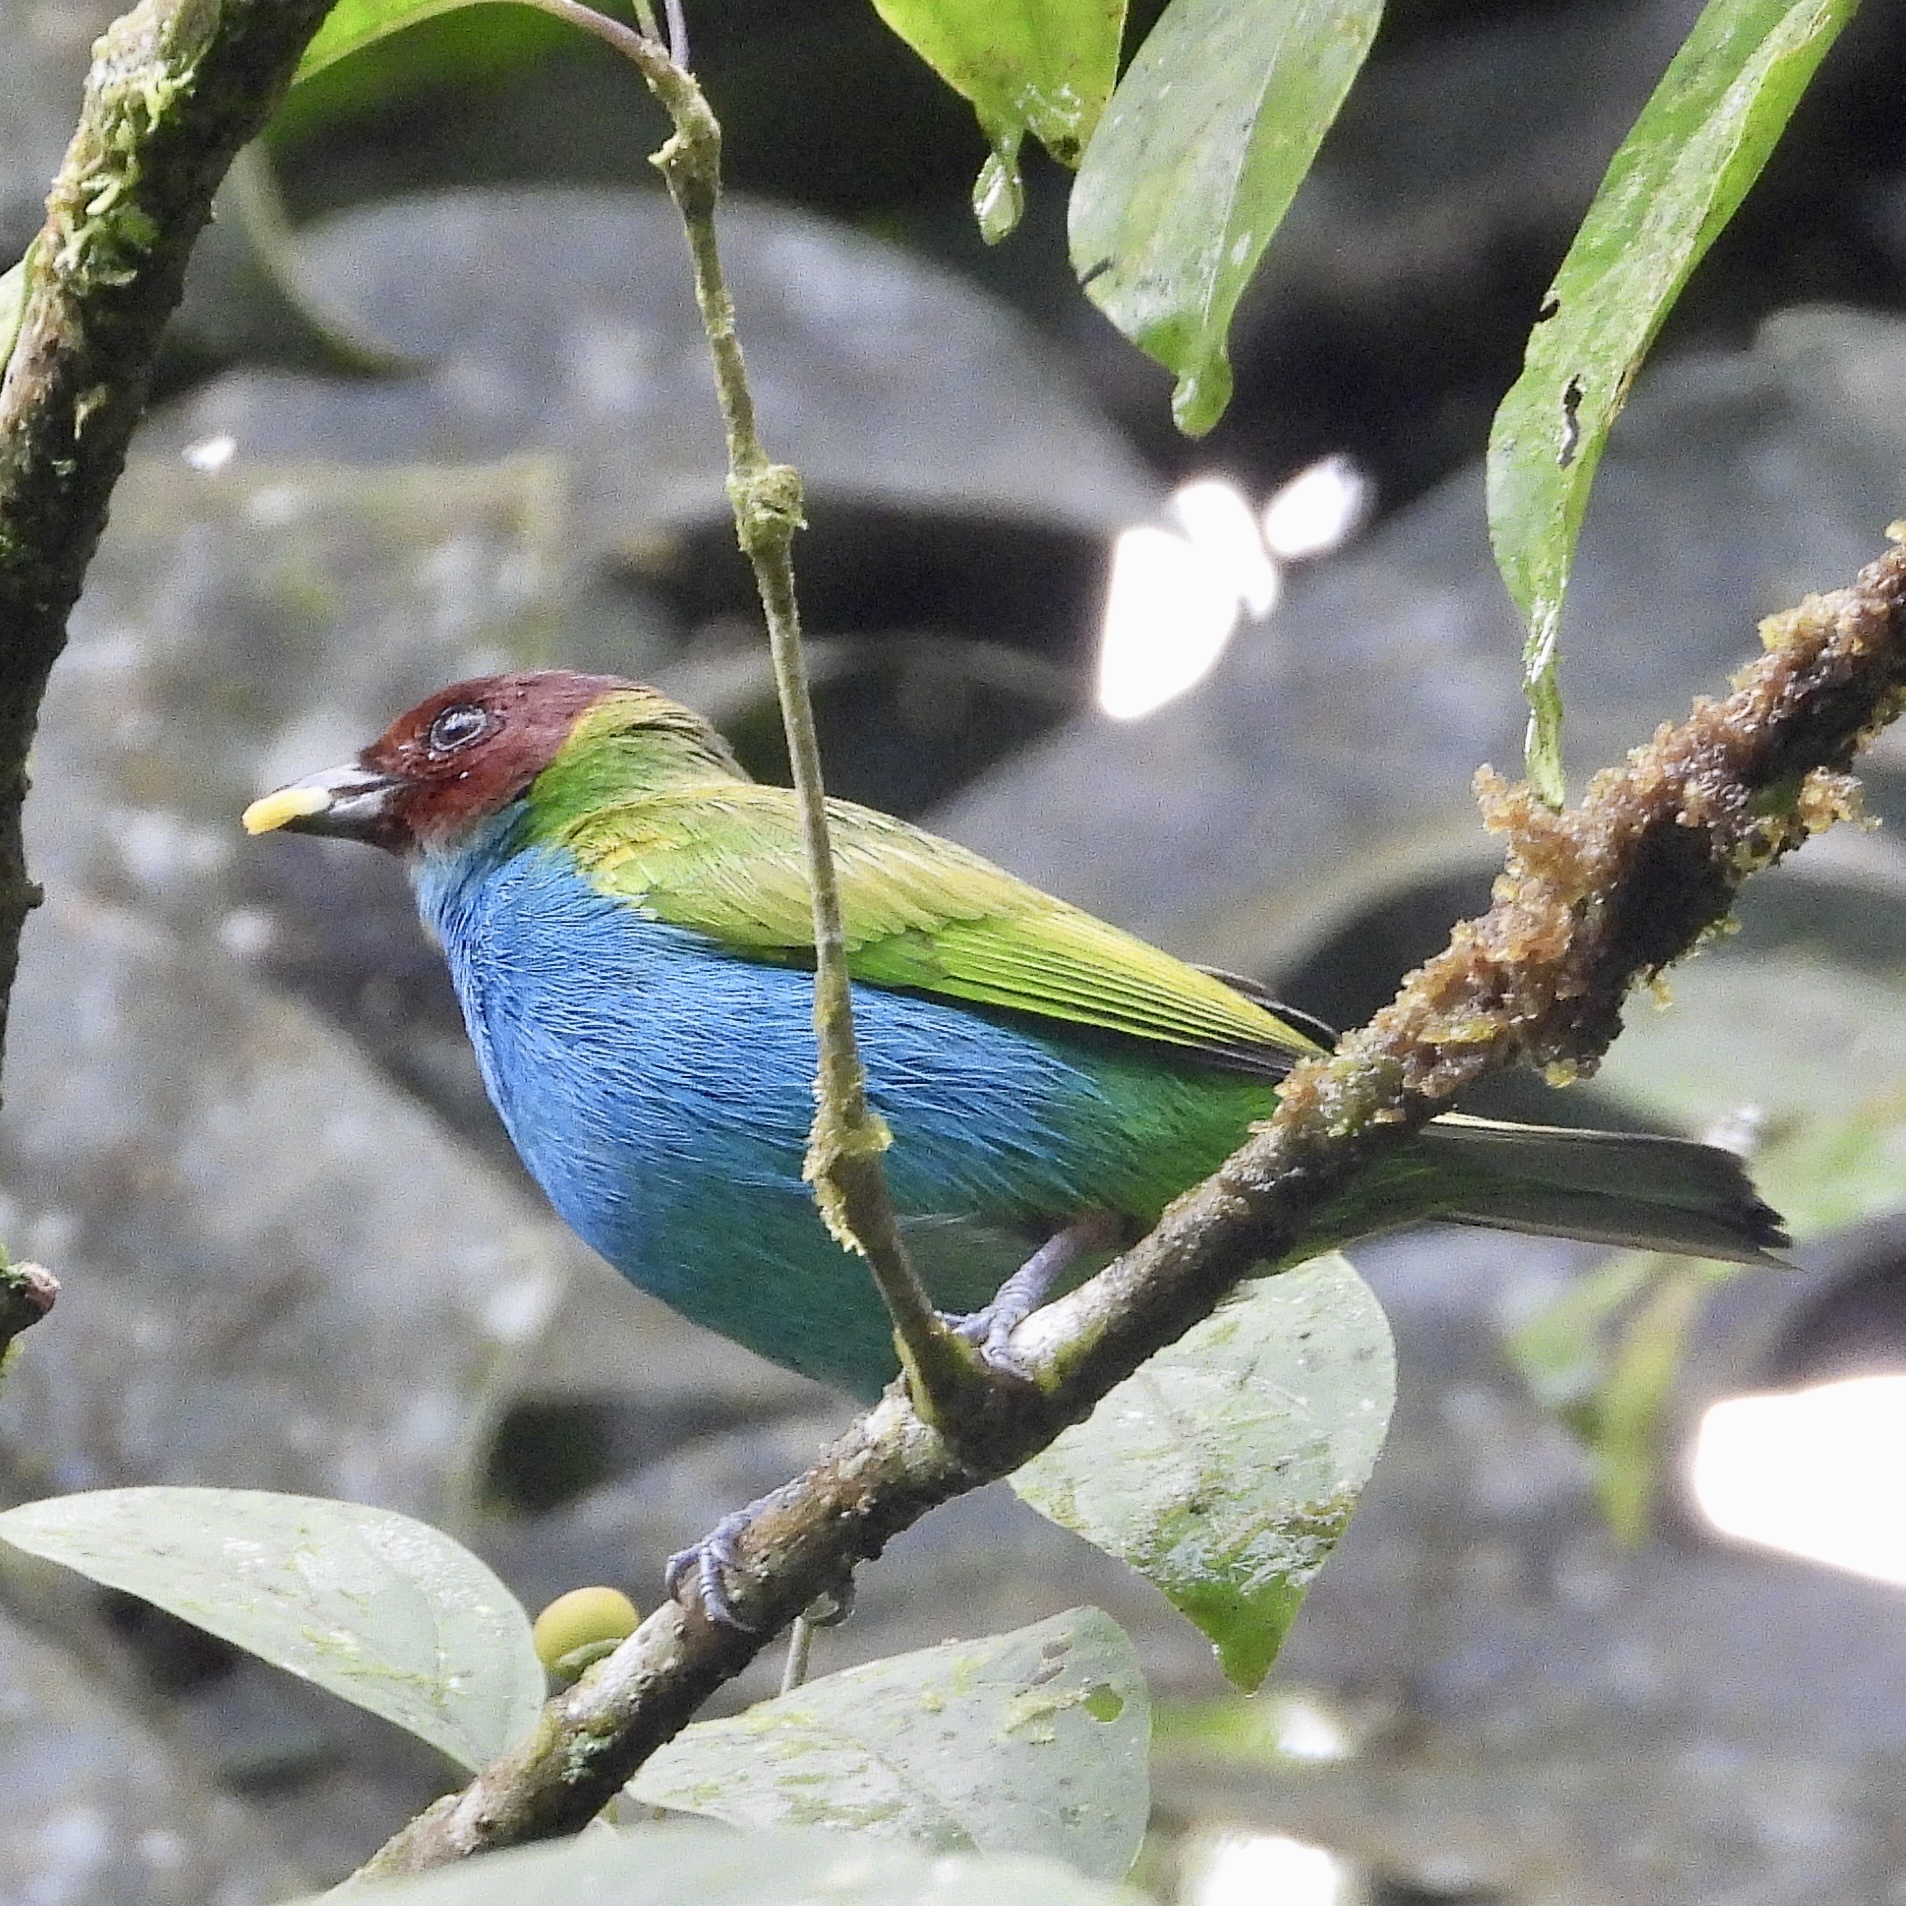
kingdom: Animalia
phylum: Chordata
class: Aves
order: Passeriformes
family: Thraupidae
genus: Tangara
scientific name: Tangara gyrola
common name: Bay-headed tanager
